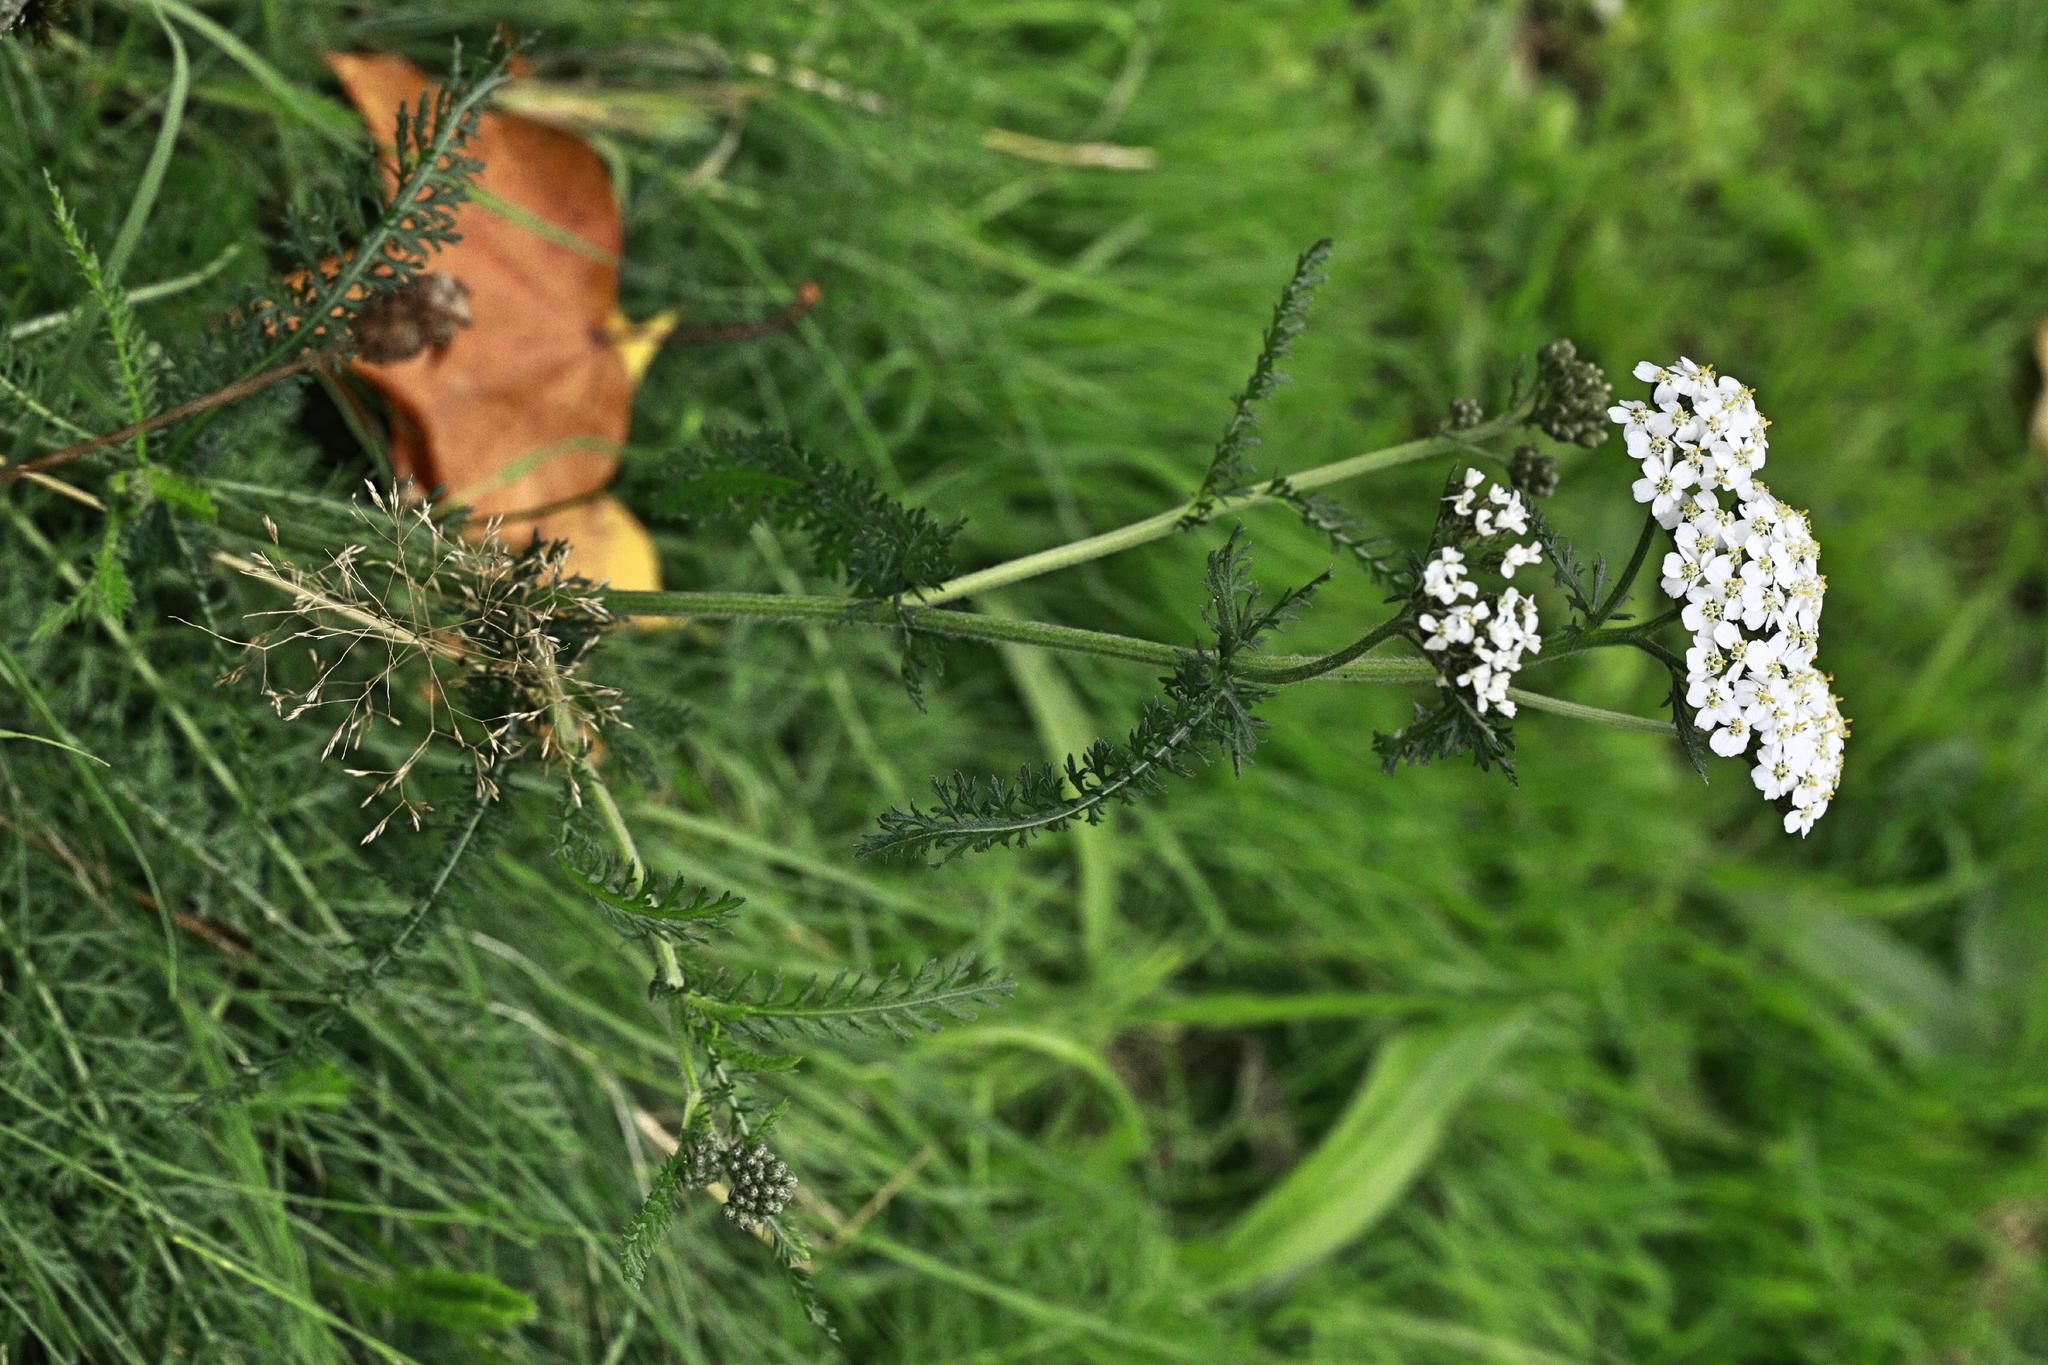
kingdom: Plantae
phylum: Tracheophyta
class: Magnoliopsida
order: Asterales
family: Asteraceae
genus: Achillea
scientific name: Achillea millefolium
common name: Yarrow
